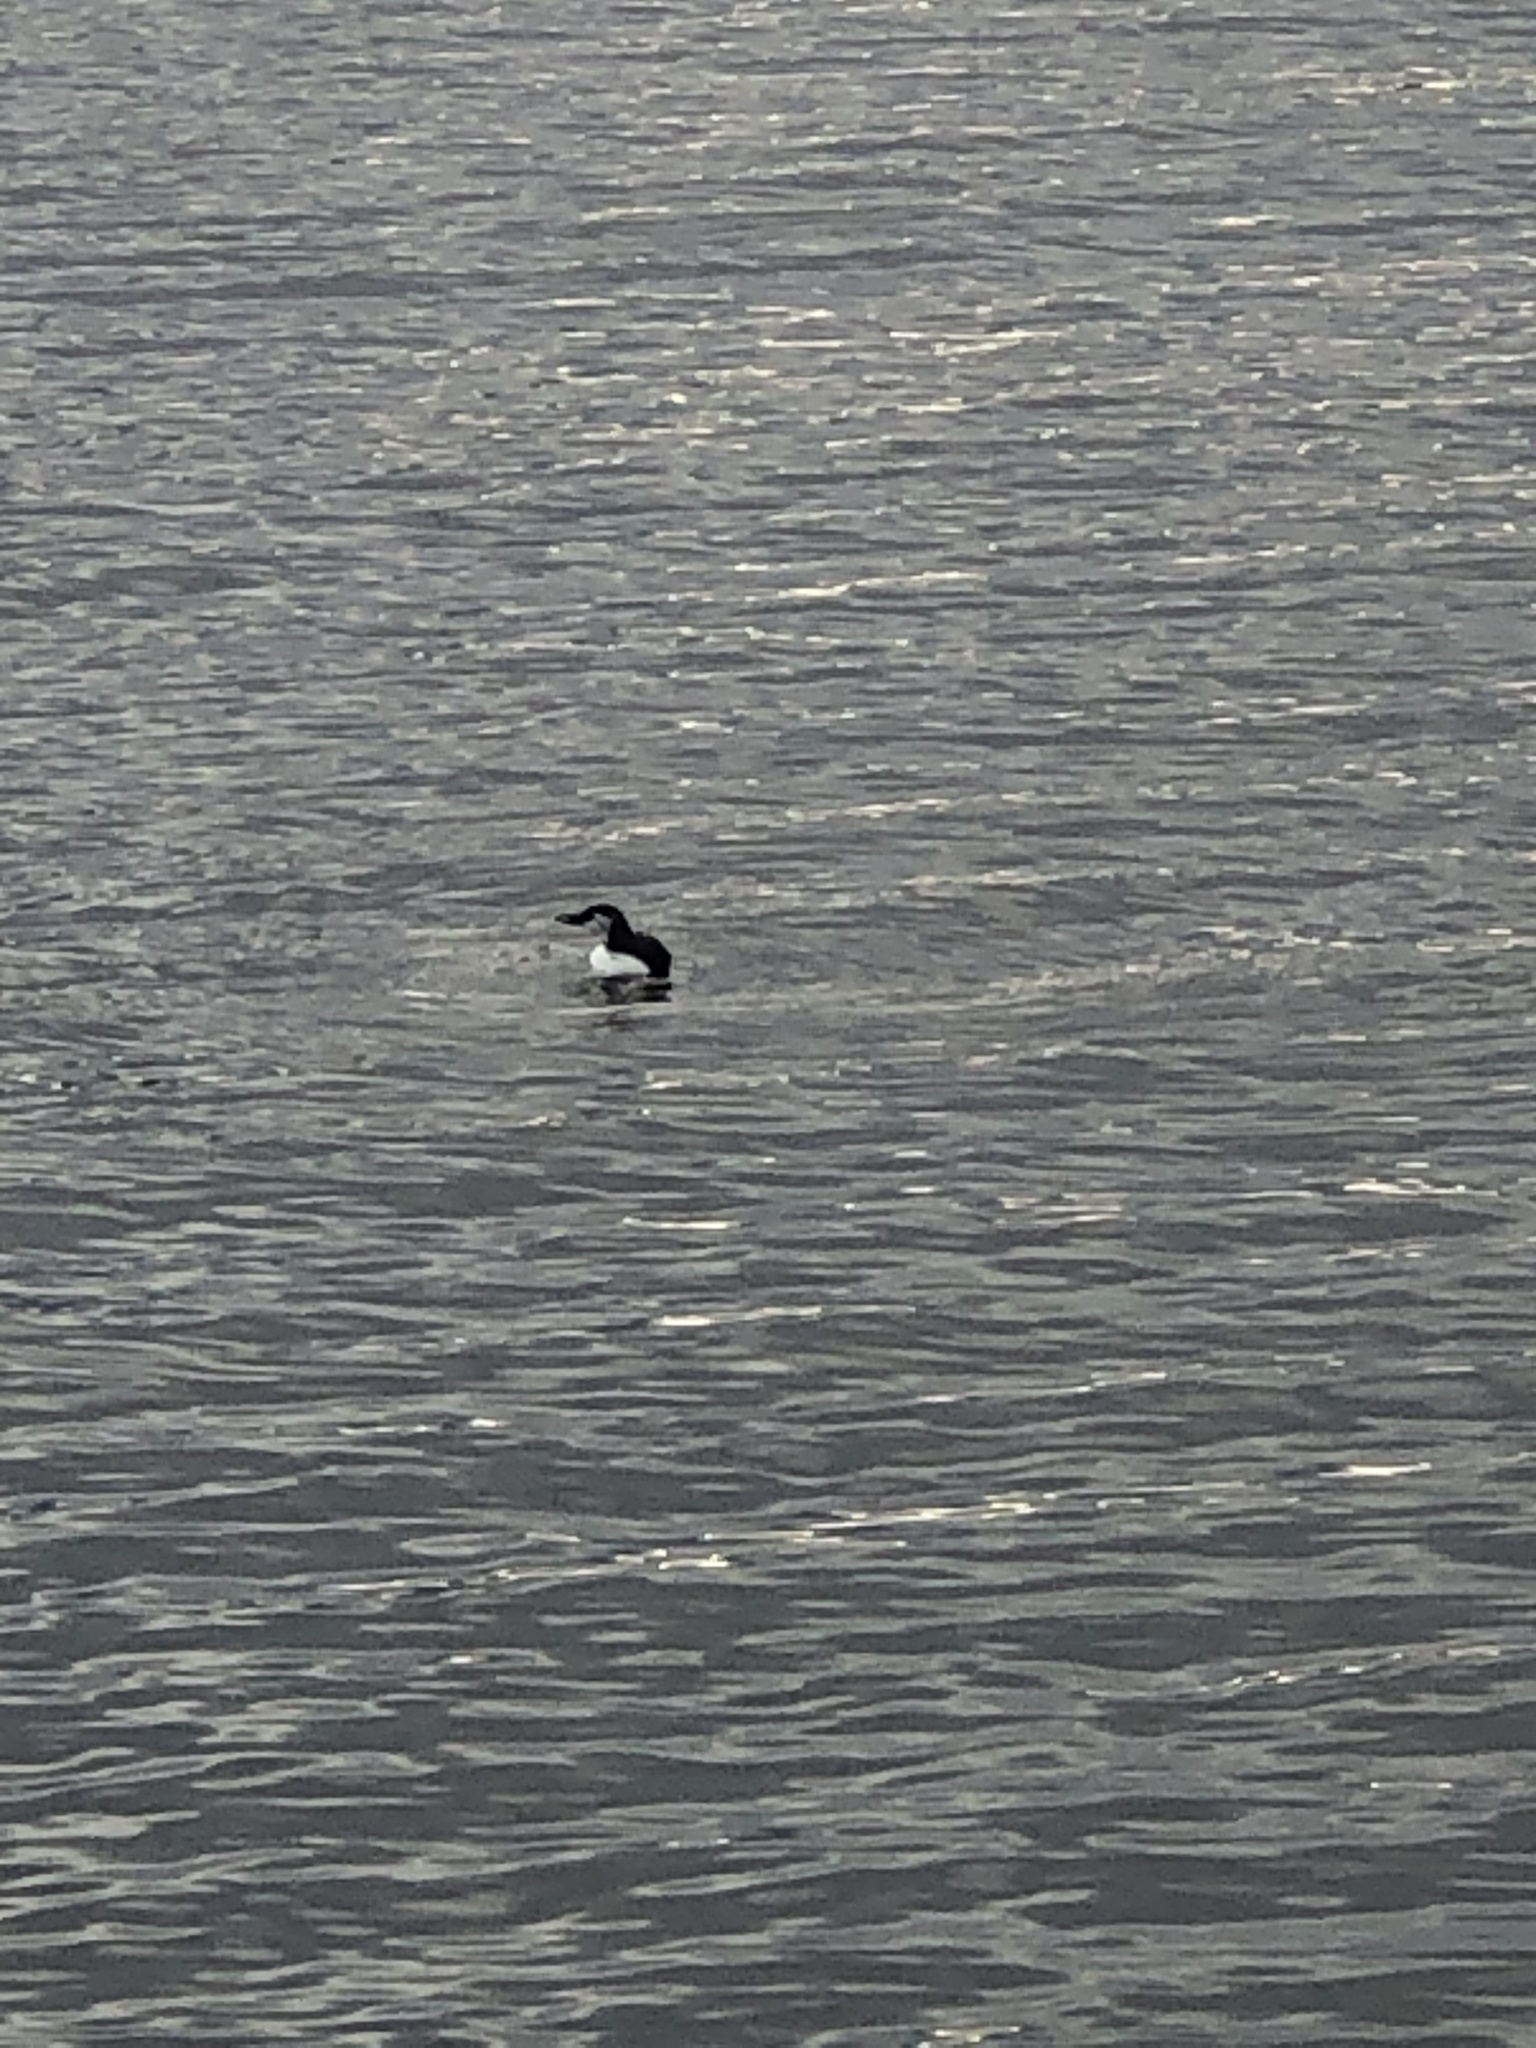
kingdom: Animalia
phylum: Chordata
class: Aves
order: Charadriiformes
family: Alcidae
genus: Uria
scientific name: Uria aalge
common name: Common murre
